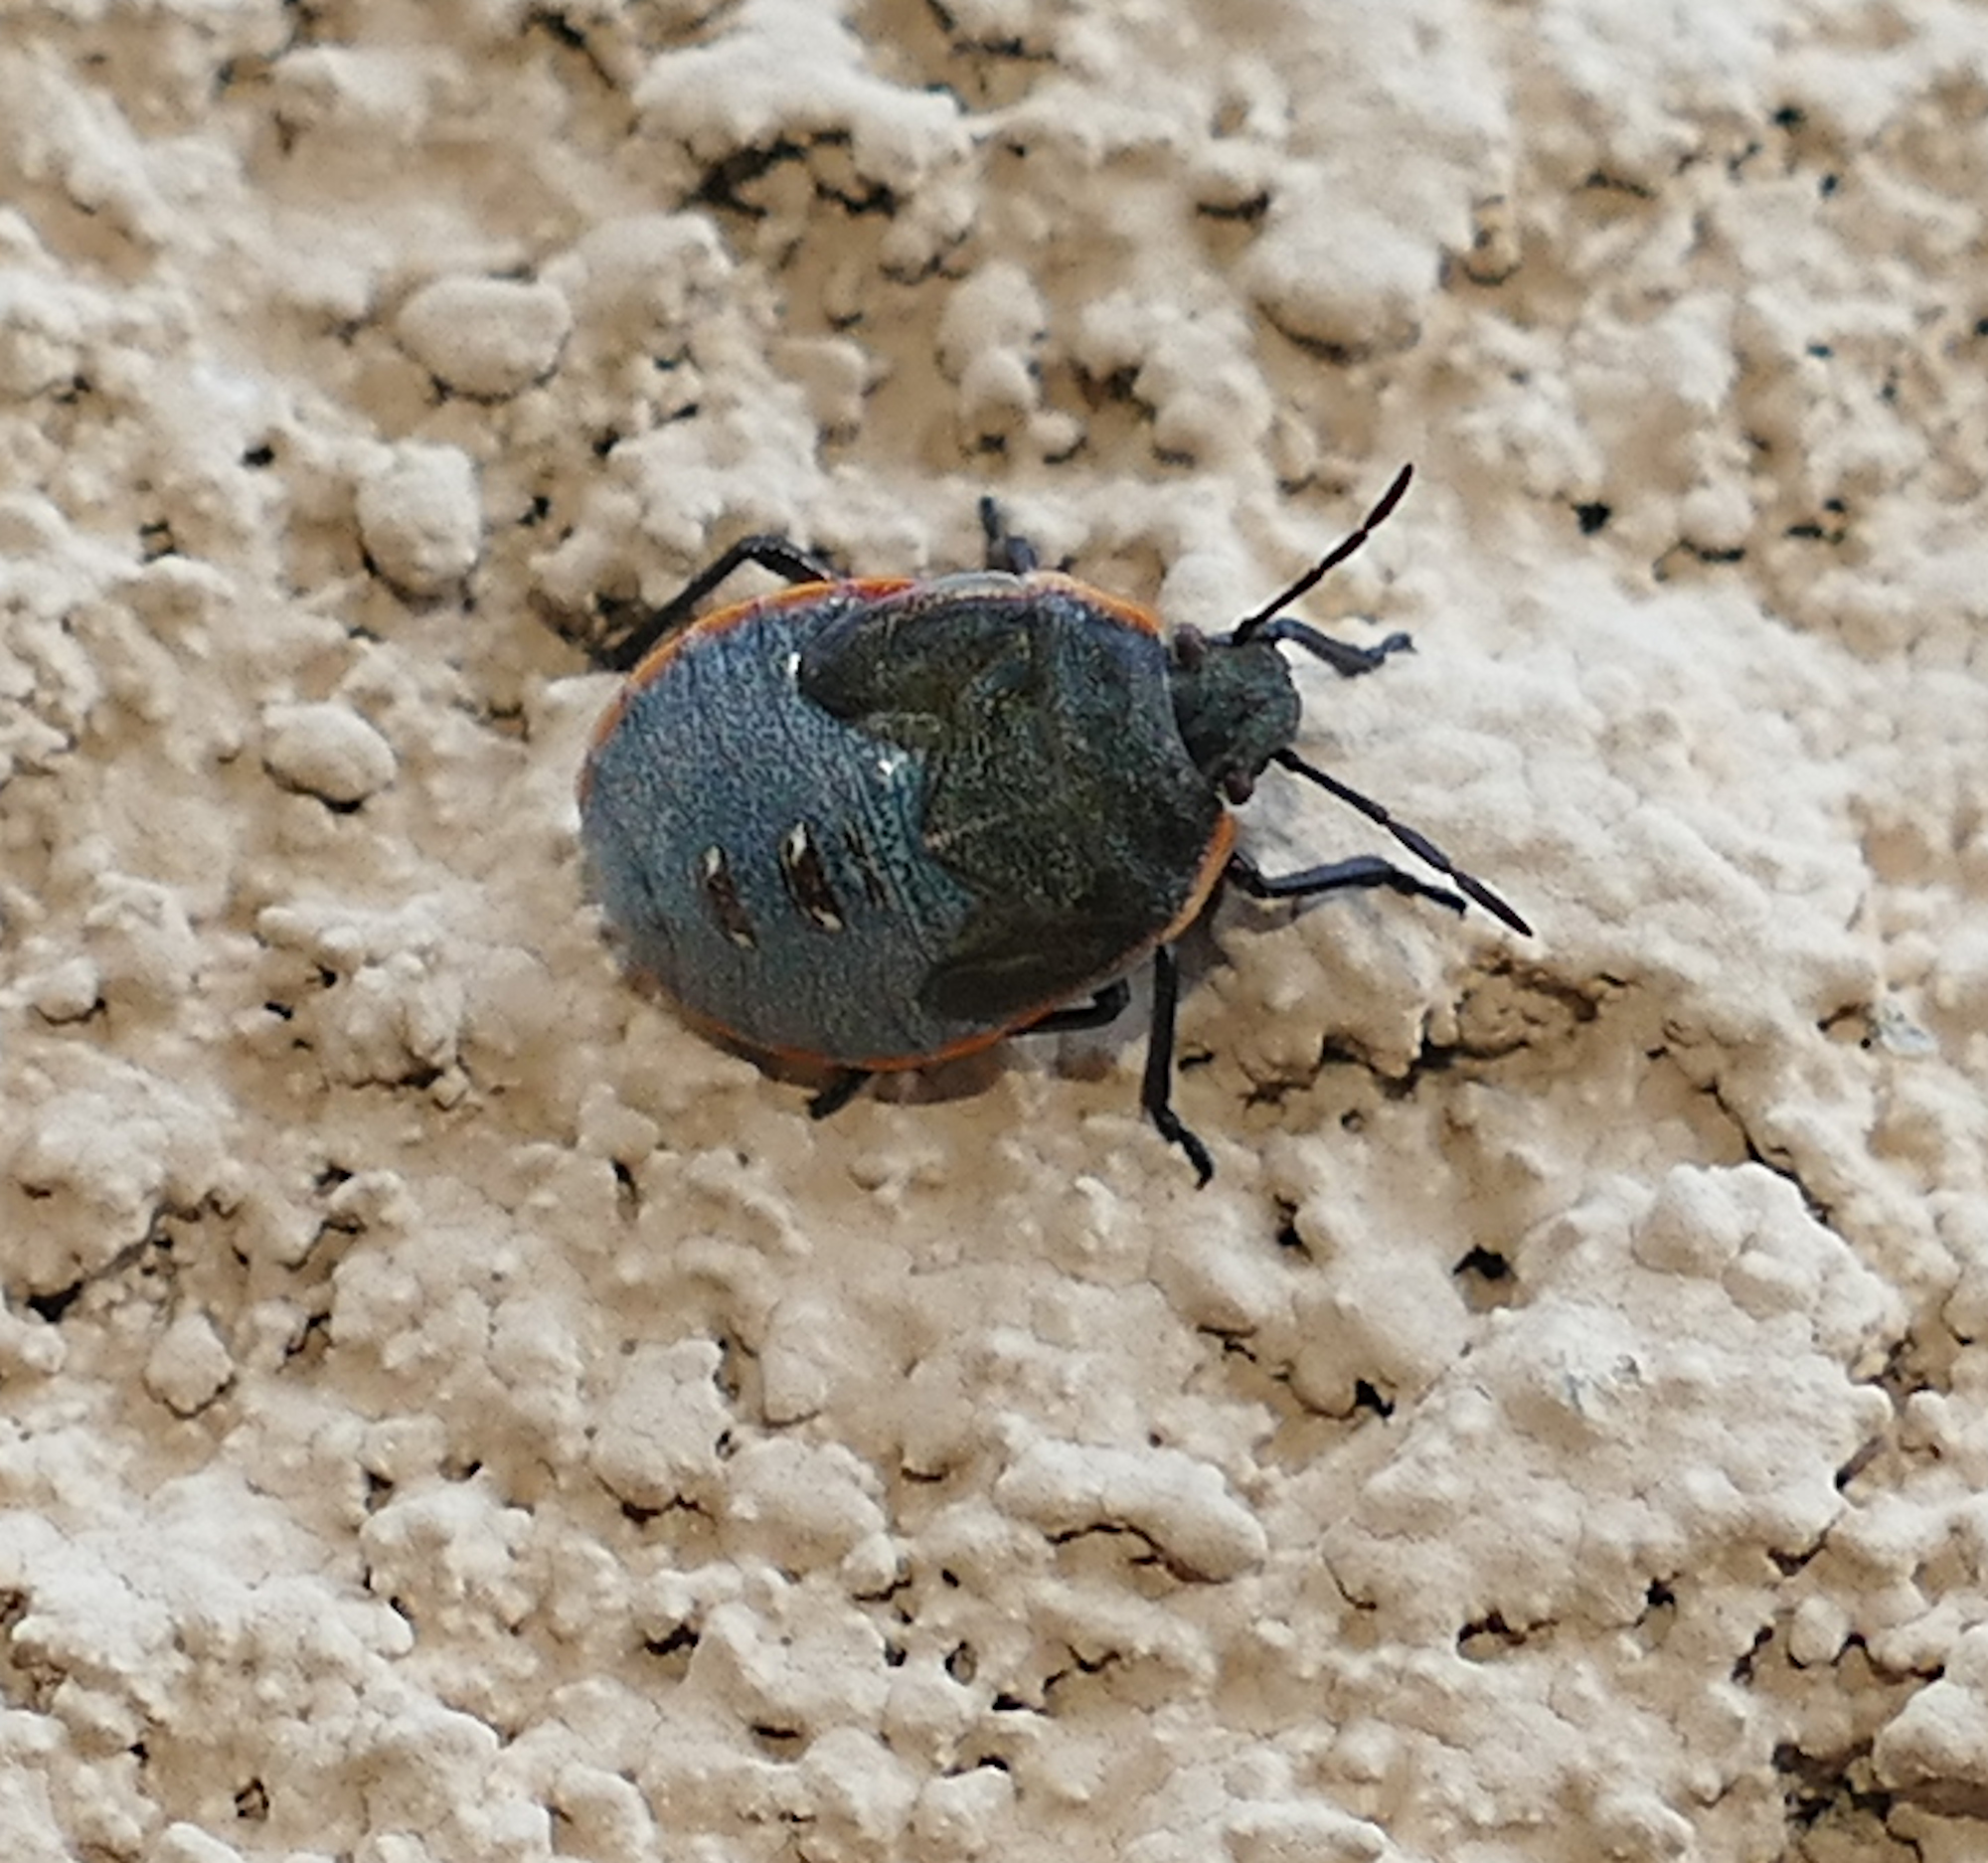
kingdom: Animalia
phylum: Arthropoda
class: Insecta
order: Hemiptera
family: Pentatomidae
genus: Chlorochroa
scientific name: Chlorochroa ligata
